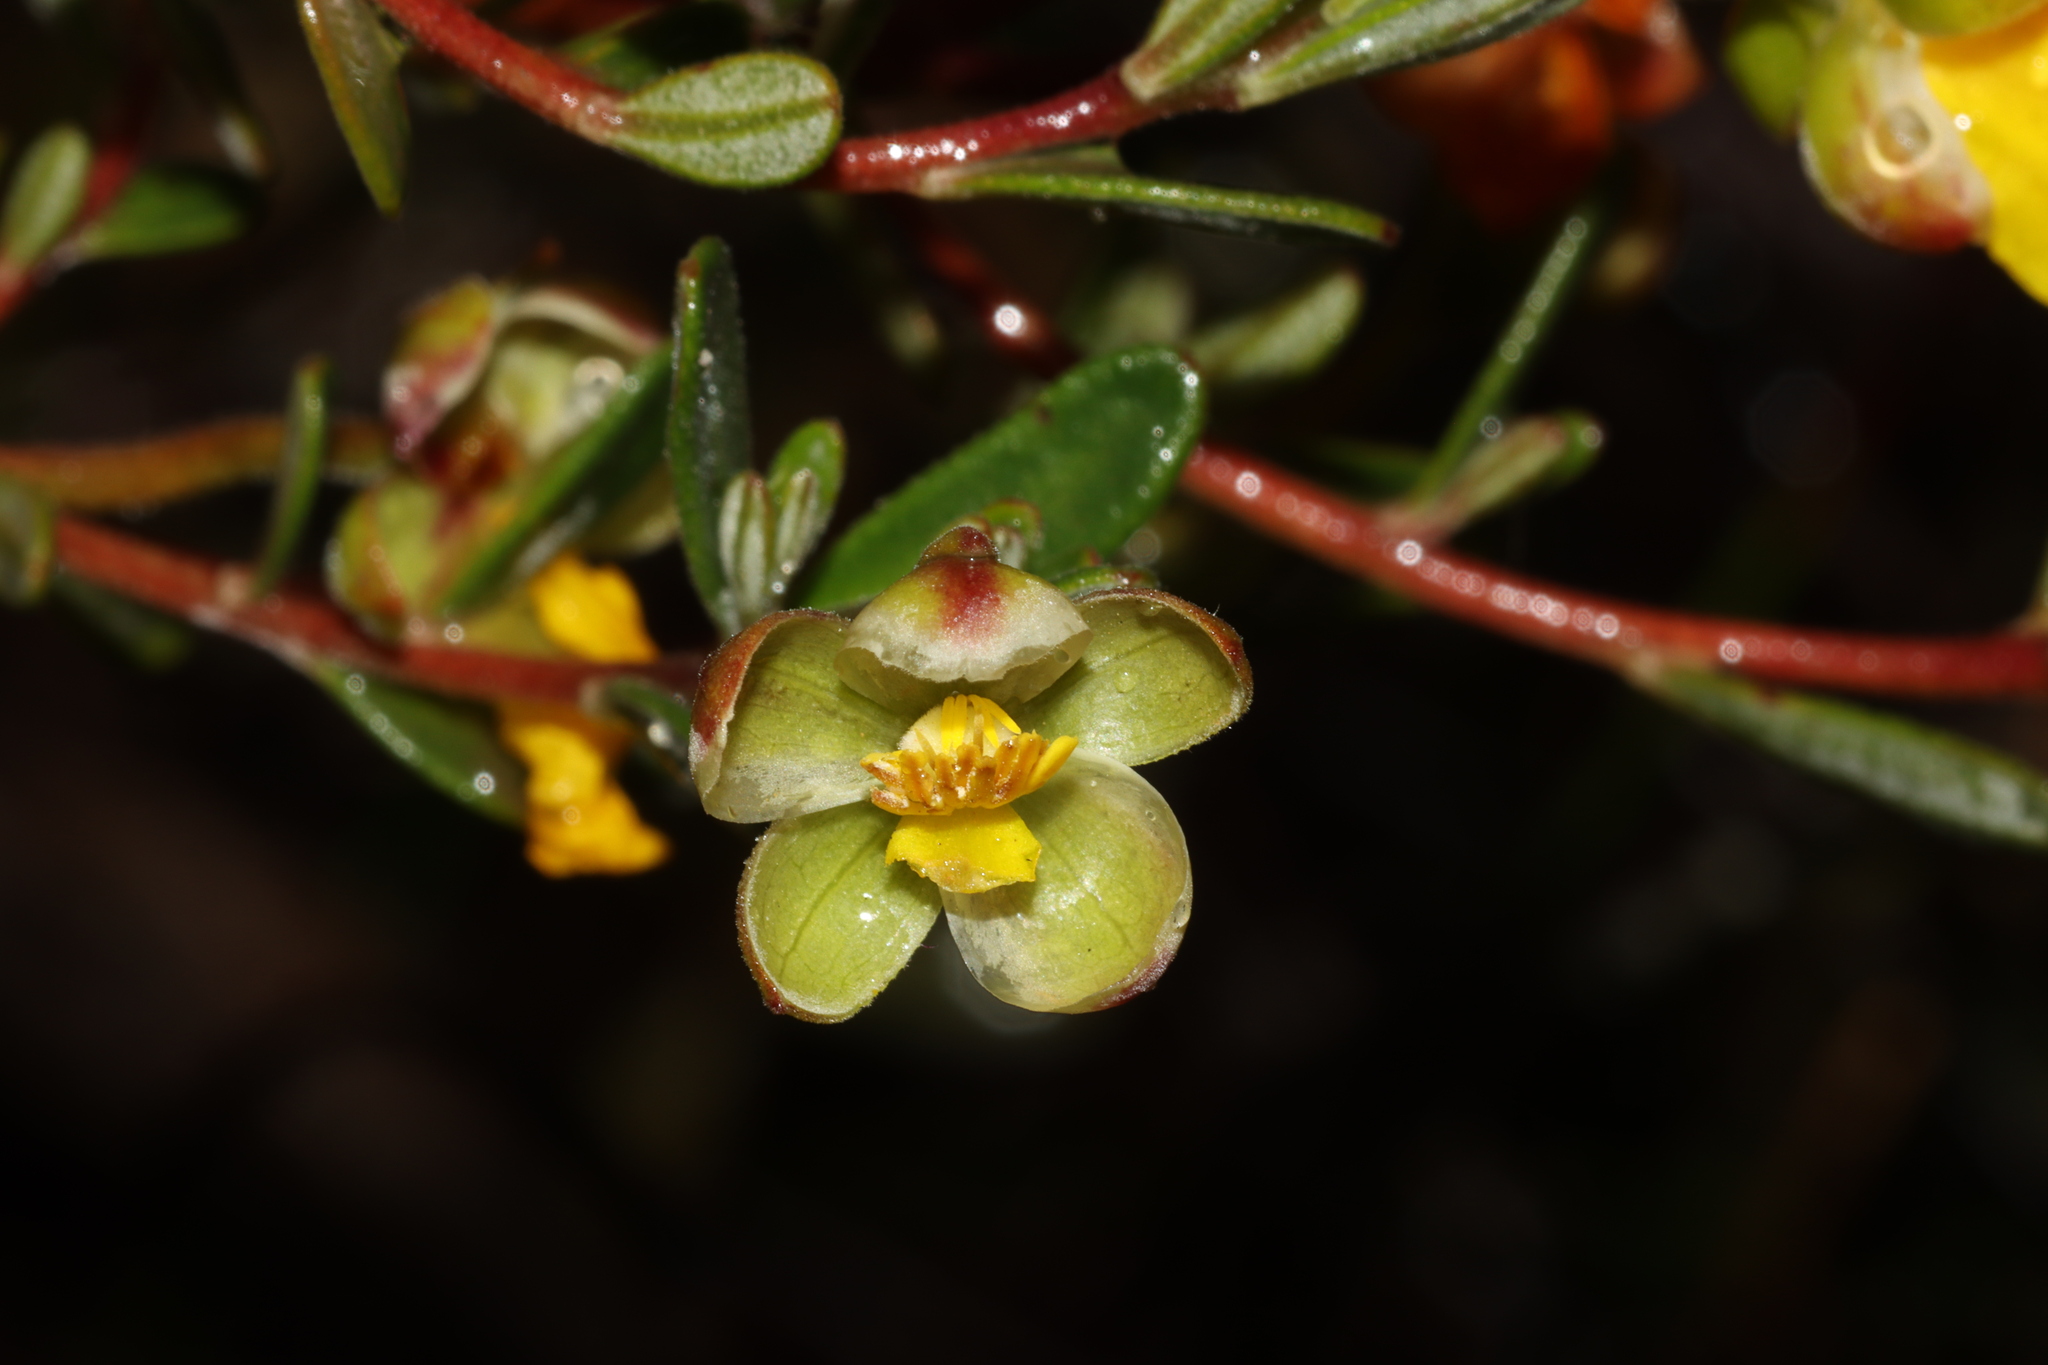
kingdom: Plantae
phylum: Tracheophyta
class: Magnoliopsida
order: Dilleniales
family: Dilleniaceae
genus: Hibbertia
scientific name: Hibbertia hypericoides
